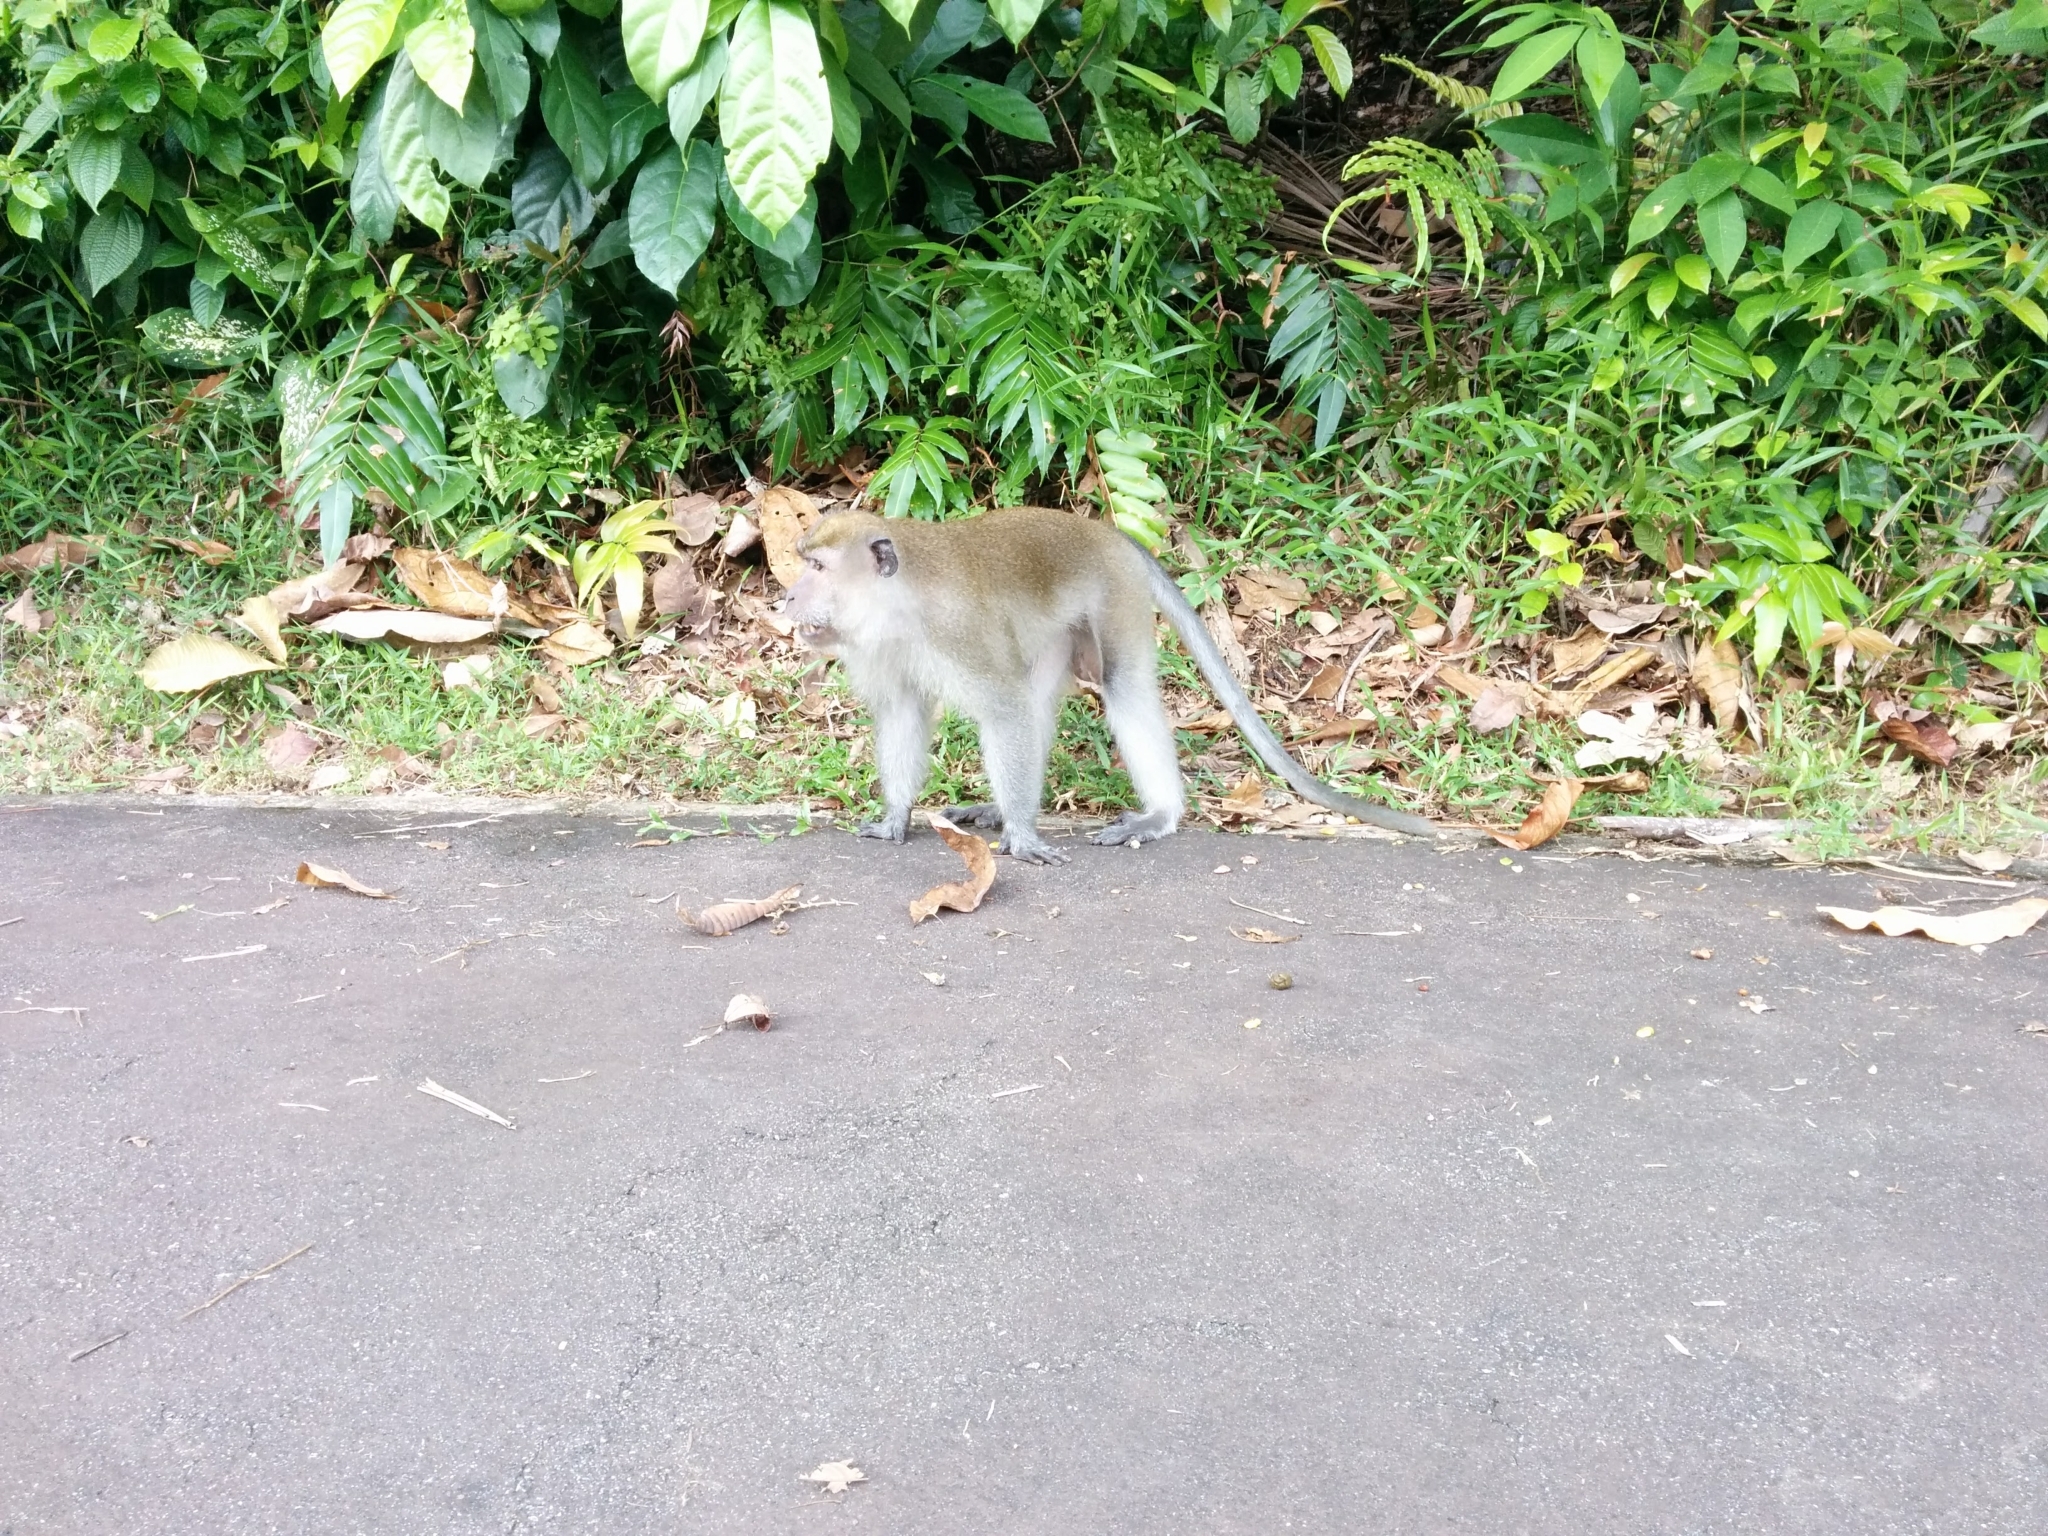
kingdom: Animalia
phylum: Chordata
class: Mammalia
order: Primates
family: Cercopithecidae
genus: Macaca
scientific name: Macaca fascicularis
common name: Crab-eating macaque
